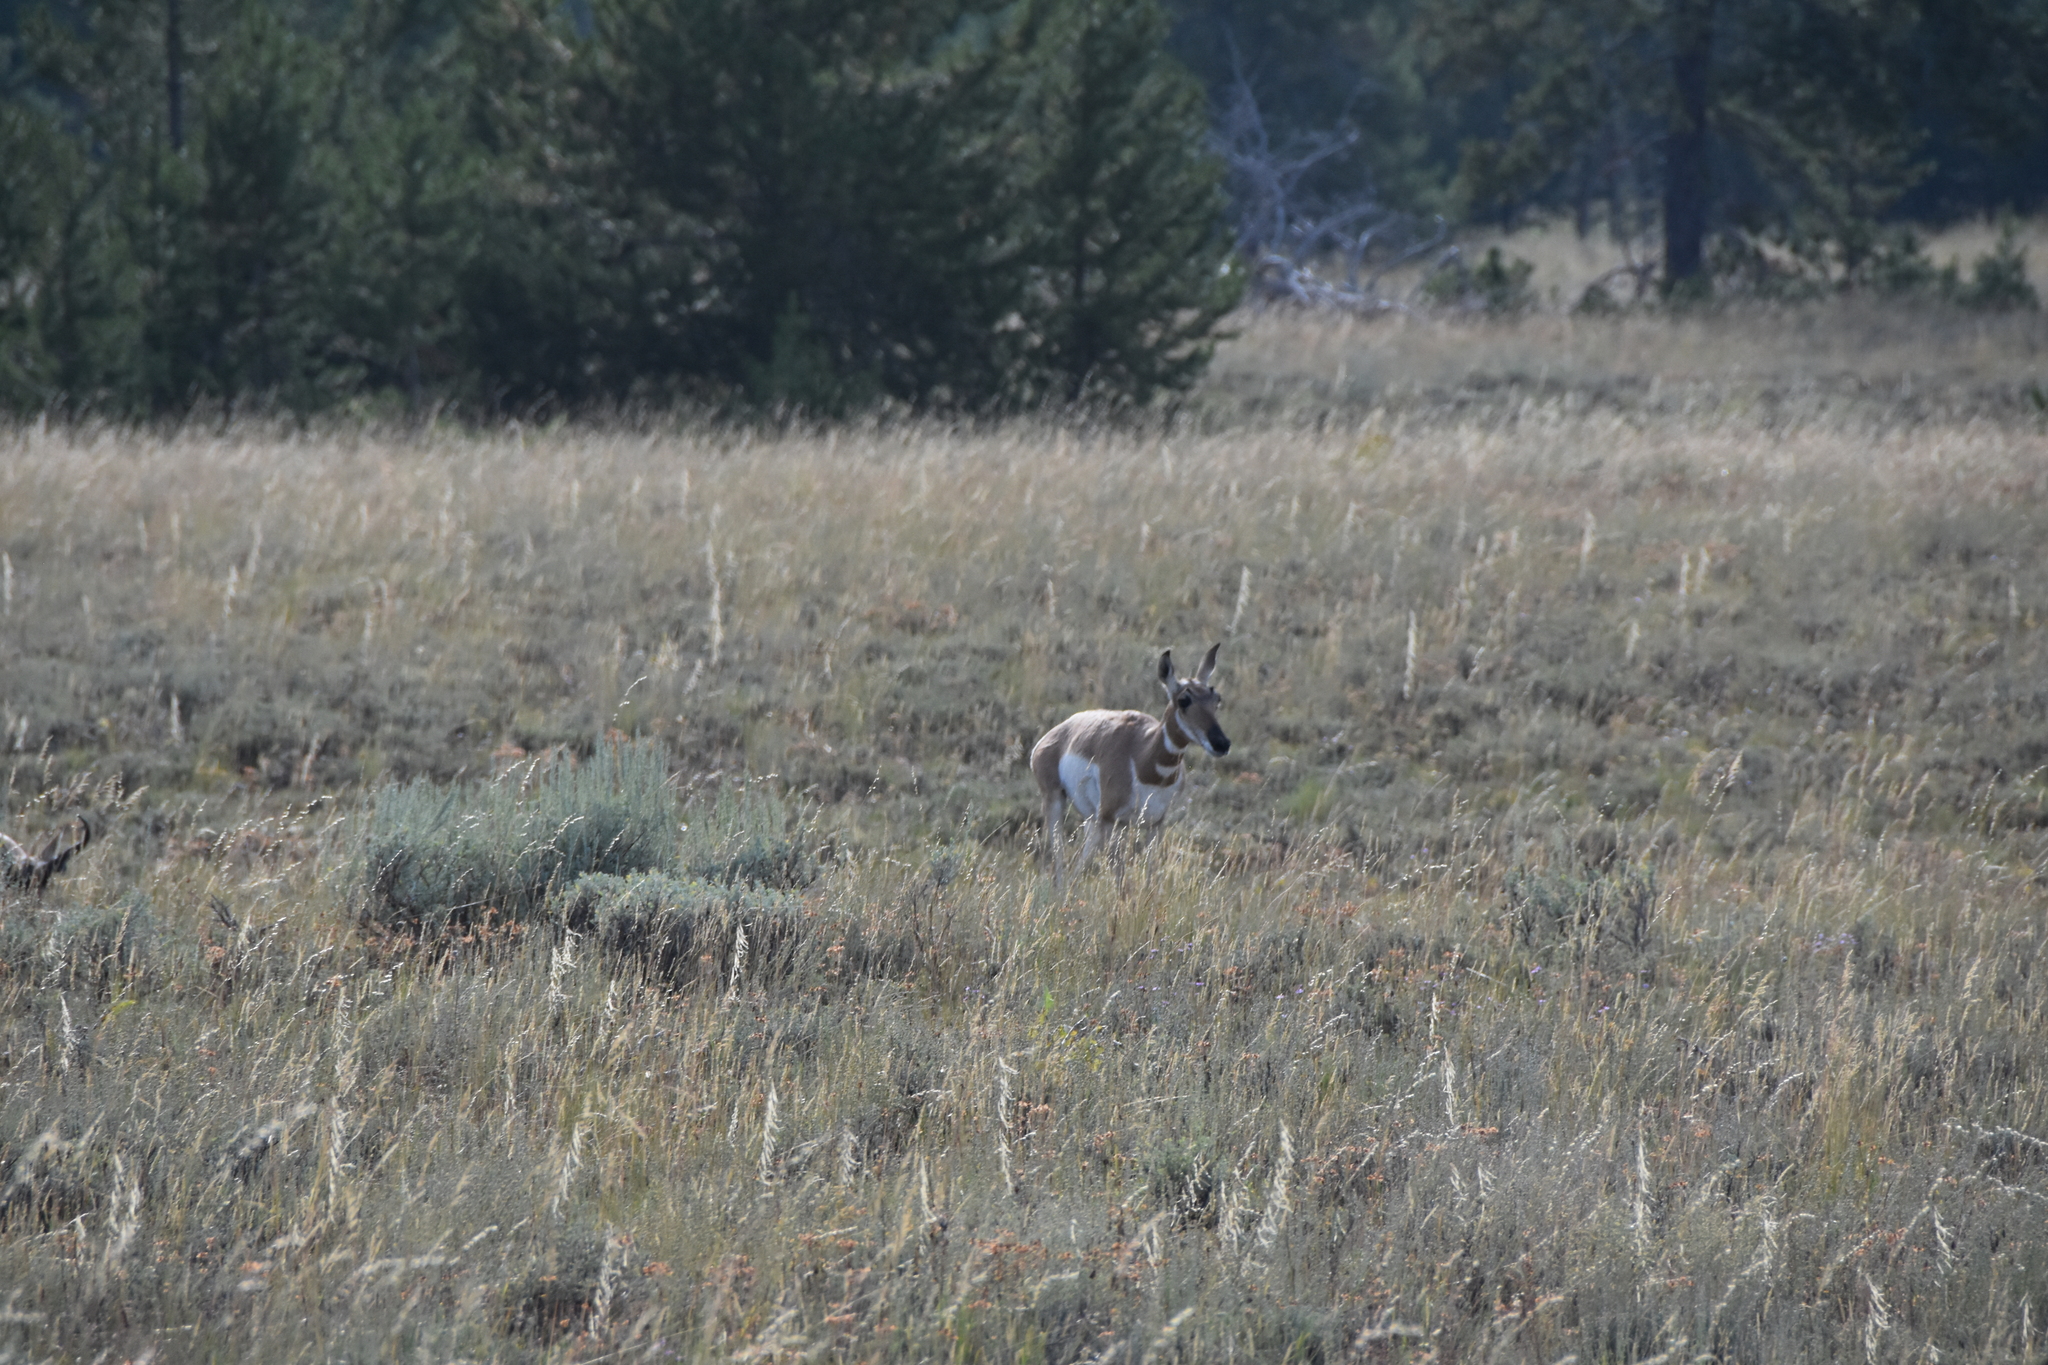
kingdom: Animalia
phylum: Chordata
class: Mammalia
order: Artiodactyla
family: Antilocapridae
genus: Antilocapra
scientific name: Antilocapra americana
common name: Pronghorn
